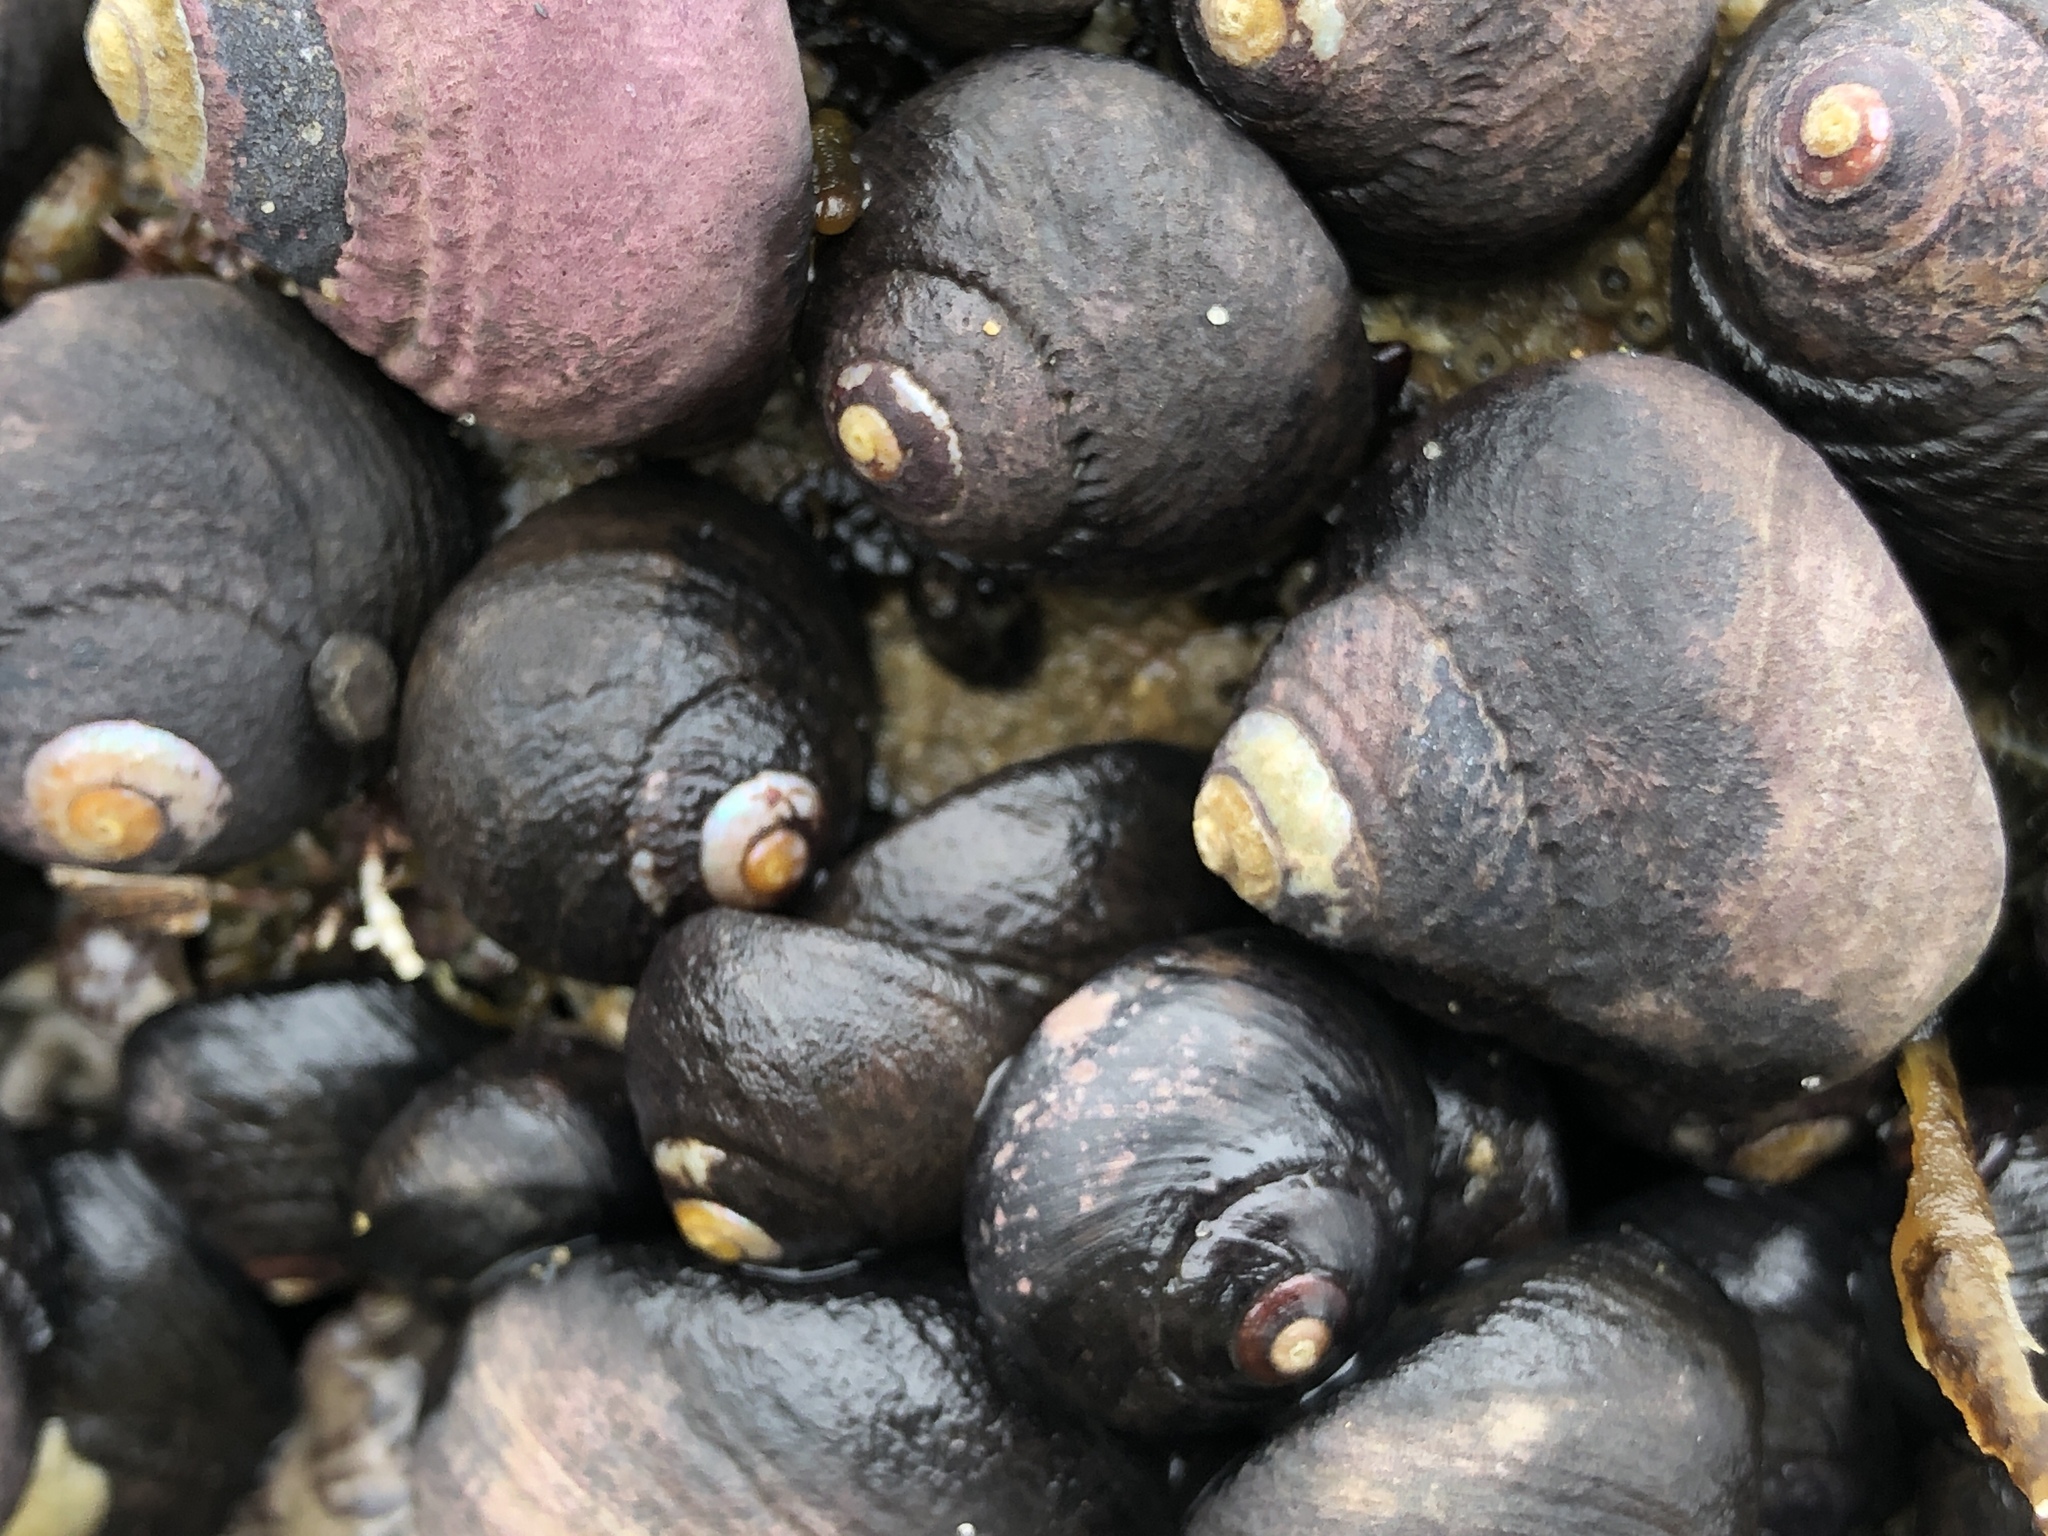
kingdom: Animalia
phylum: Mollusca
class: Gastropoda
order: Trochida
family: Tegulidae
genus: Tegula
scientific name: Tegula funebralis
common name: Black tegula
